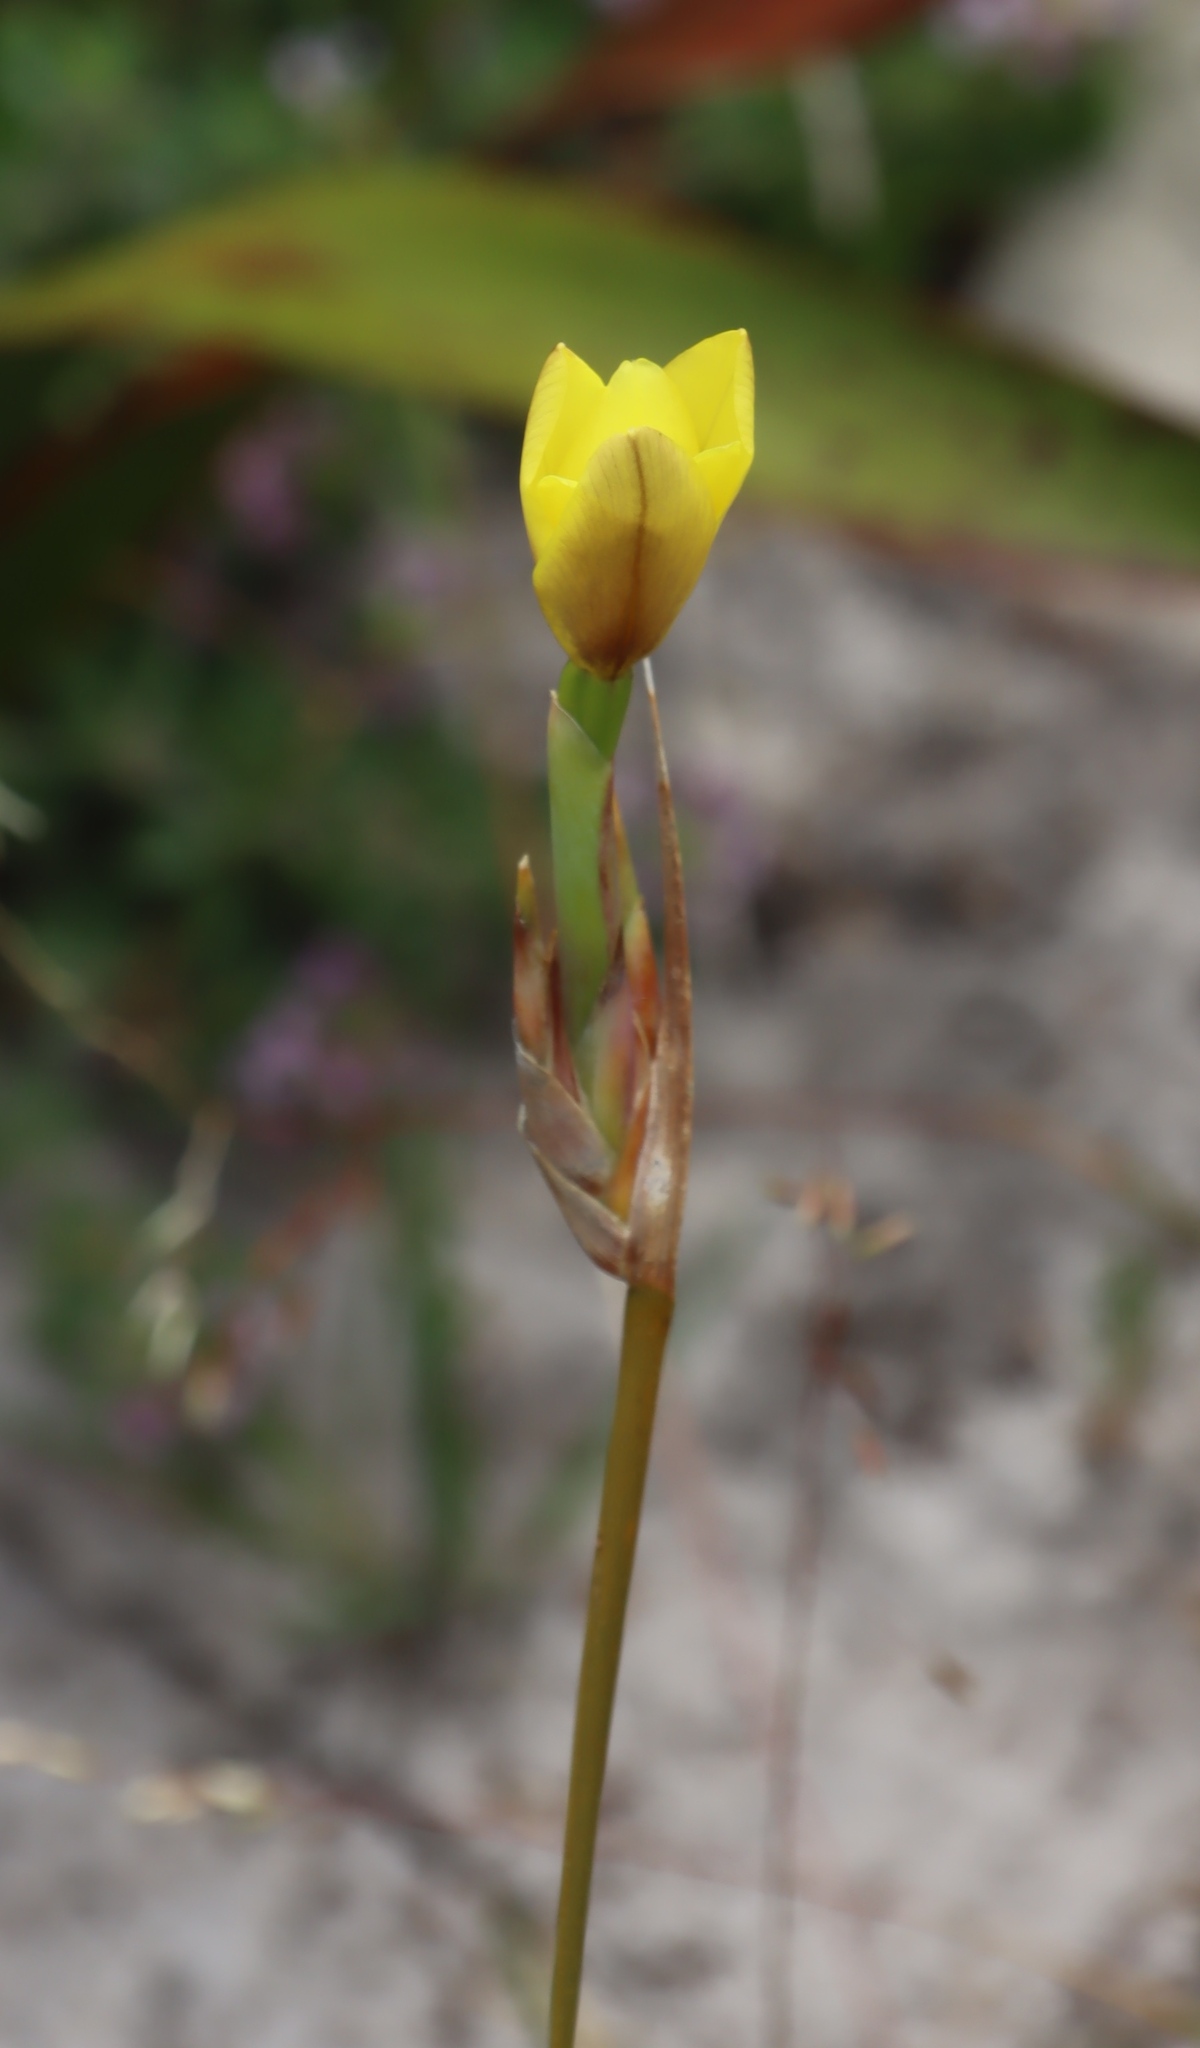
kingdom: Plantae
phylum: Tracheophyta
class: Liliopsida
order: Asparagales
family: Iridaceae
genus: Bobartia
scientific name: Bobartia gladiata
